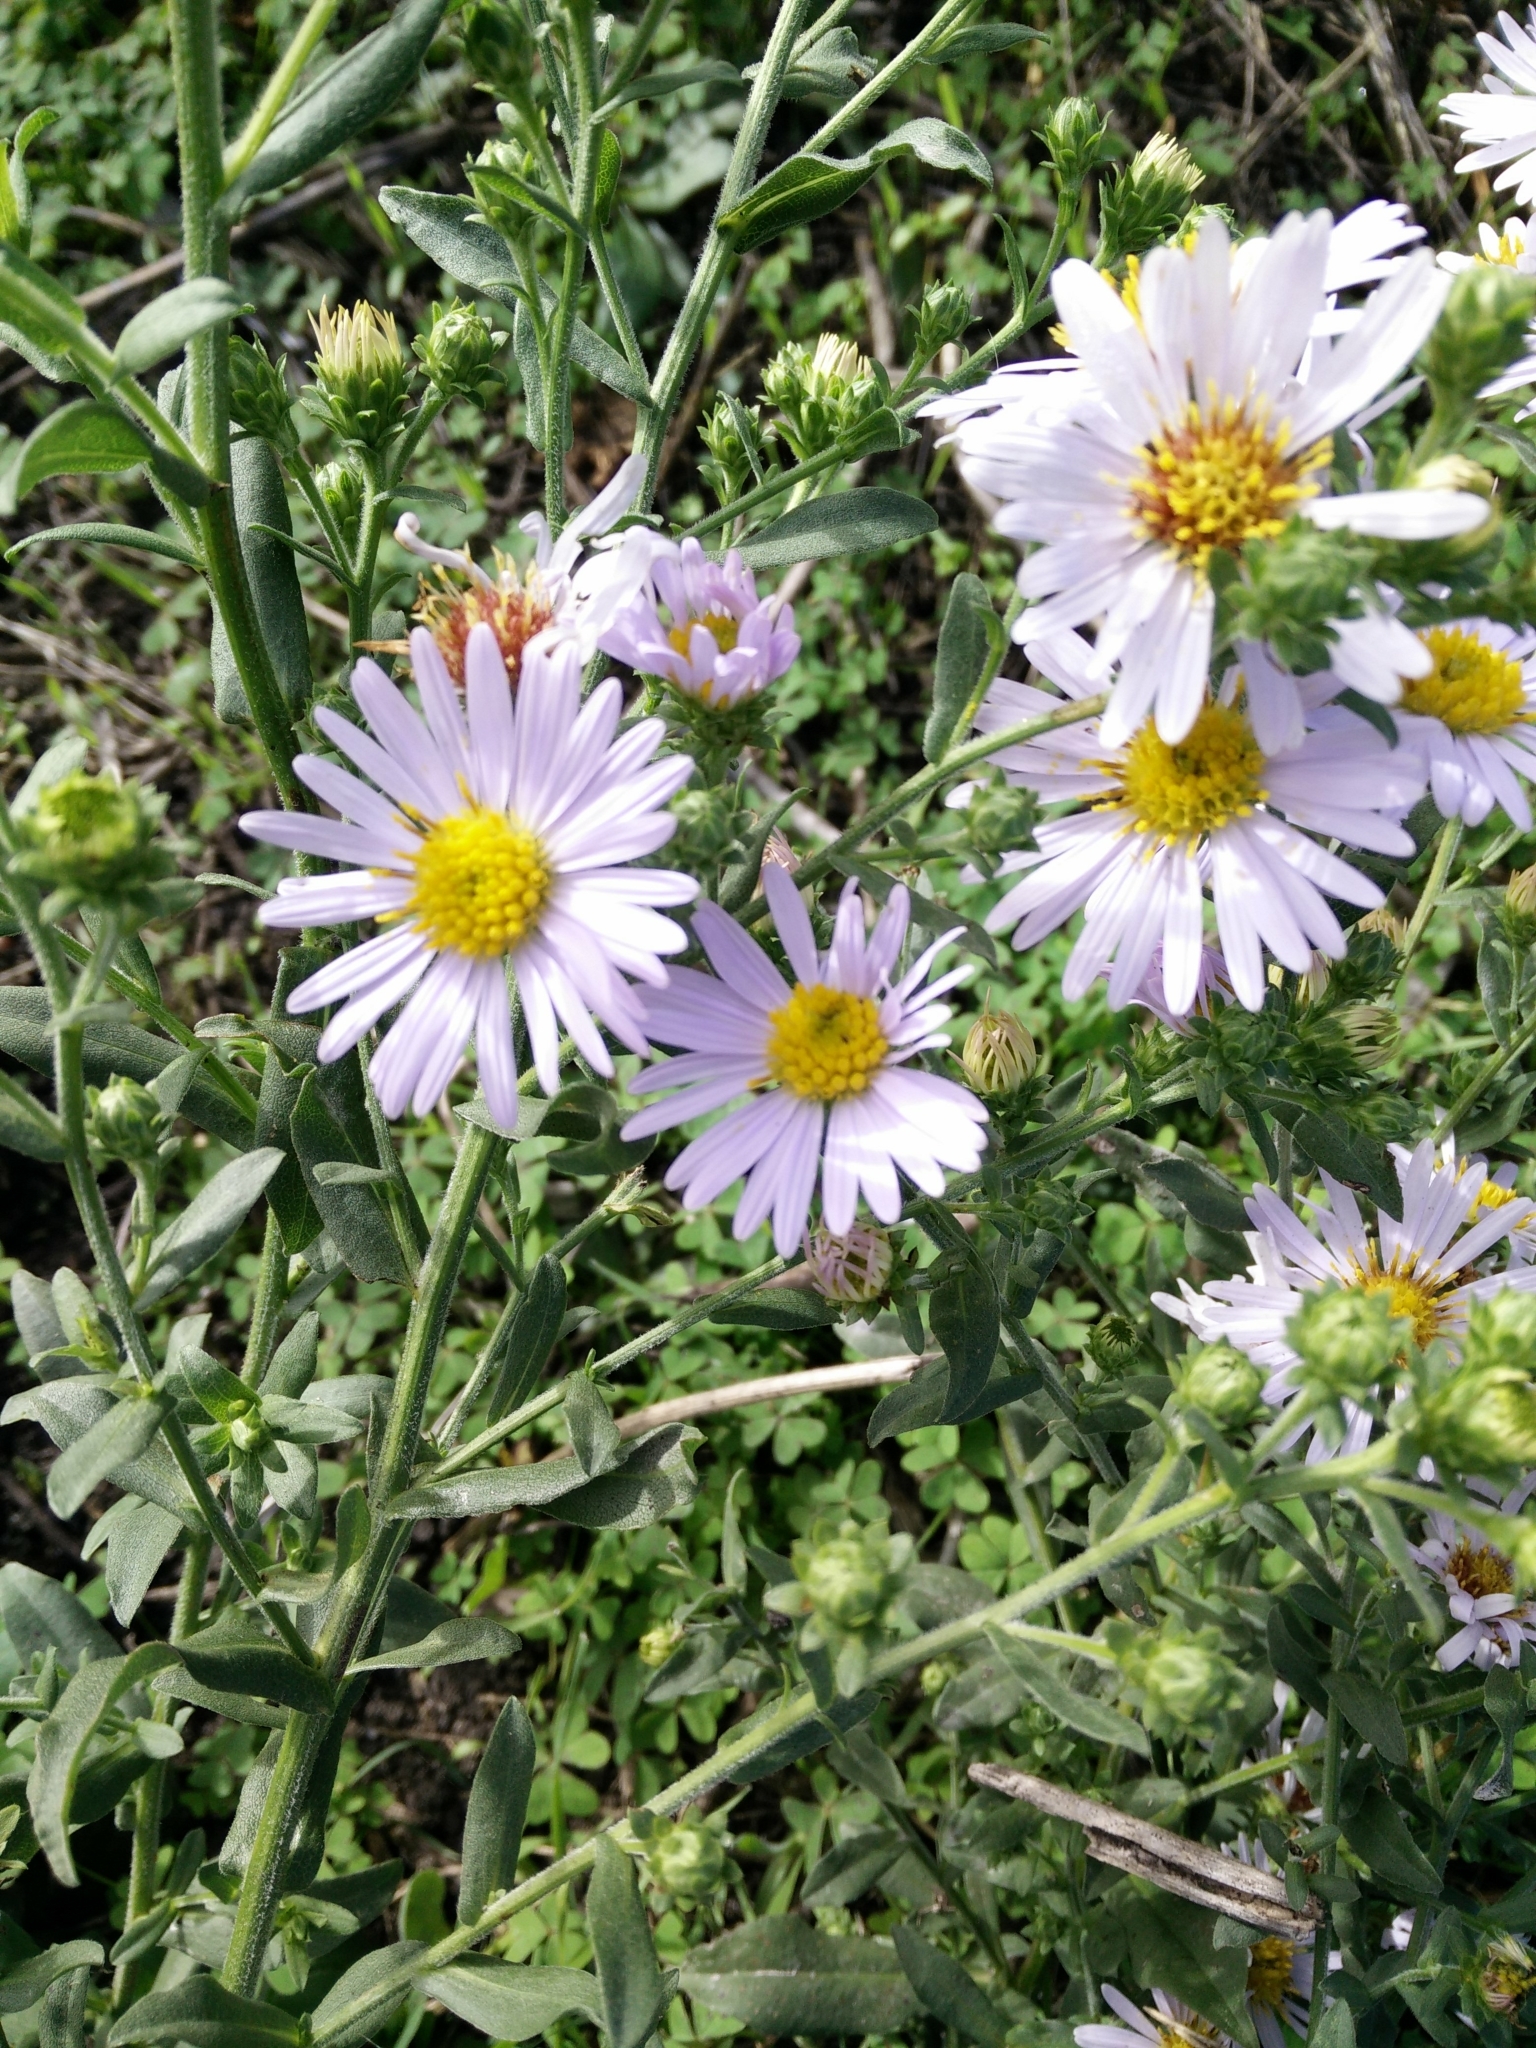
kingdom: Plantae
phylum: Tracheophyta
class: Magnoliopsida
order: Asterales
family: Asteraceae
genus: Symphyotrichum
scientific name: Symphyotrichum chilense
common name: Pacific aster
